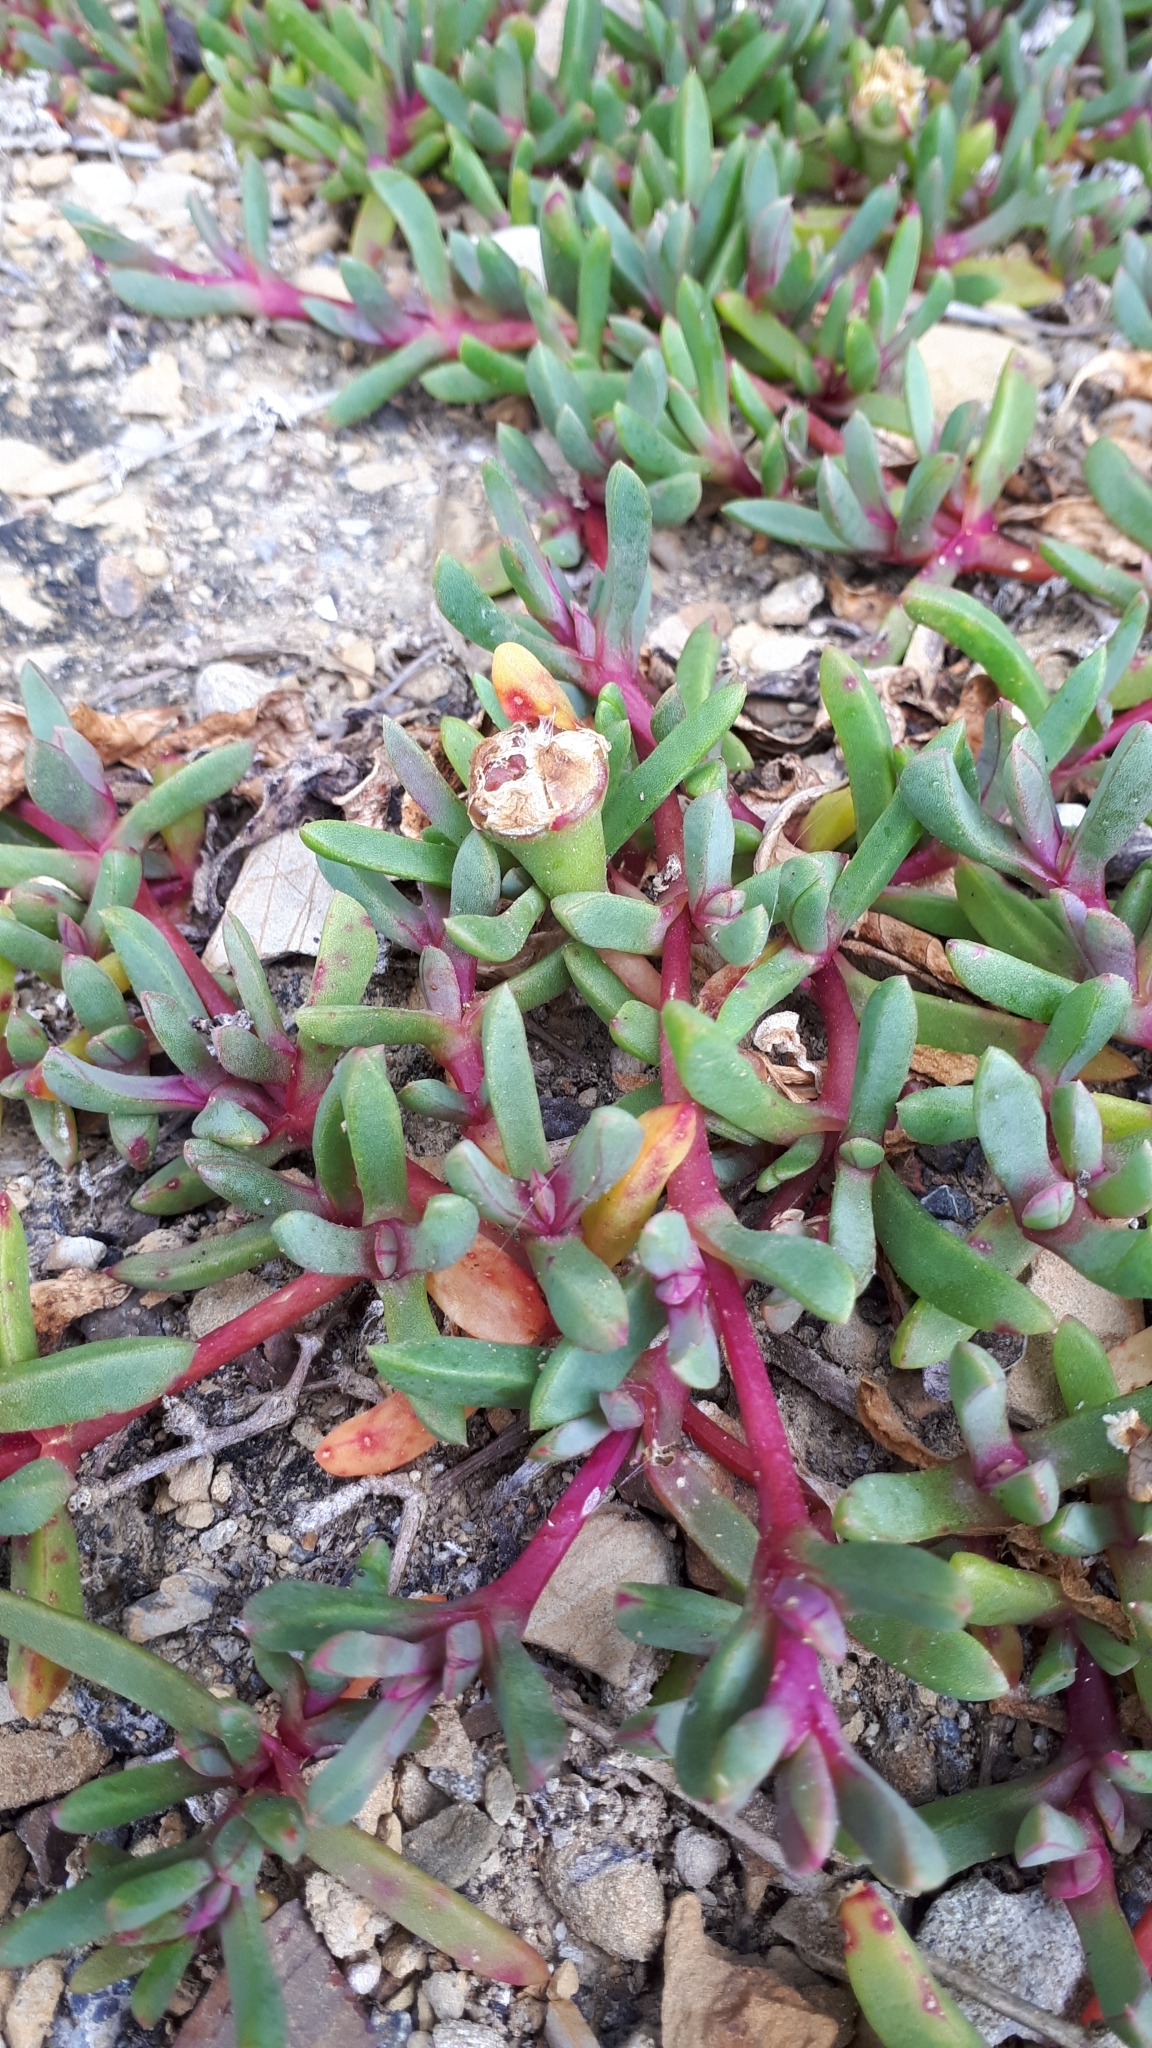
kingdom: Plantae
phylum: Tracheophyta
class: Magnoliopsida
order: Caryophyllales
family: Aizoaceae
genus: Disphyma
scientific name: Disphyma australe
